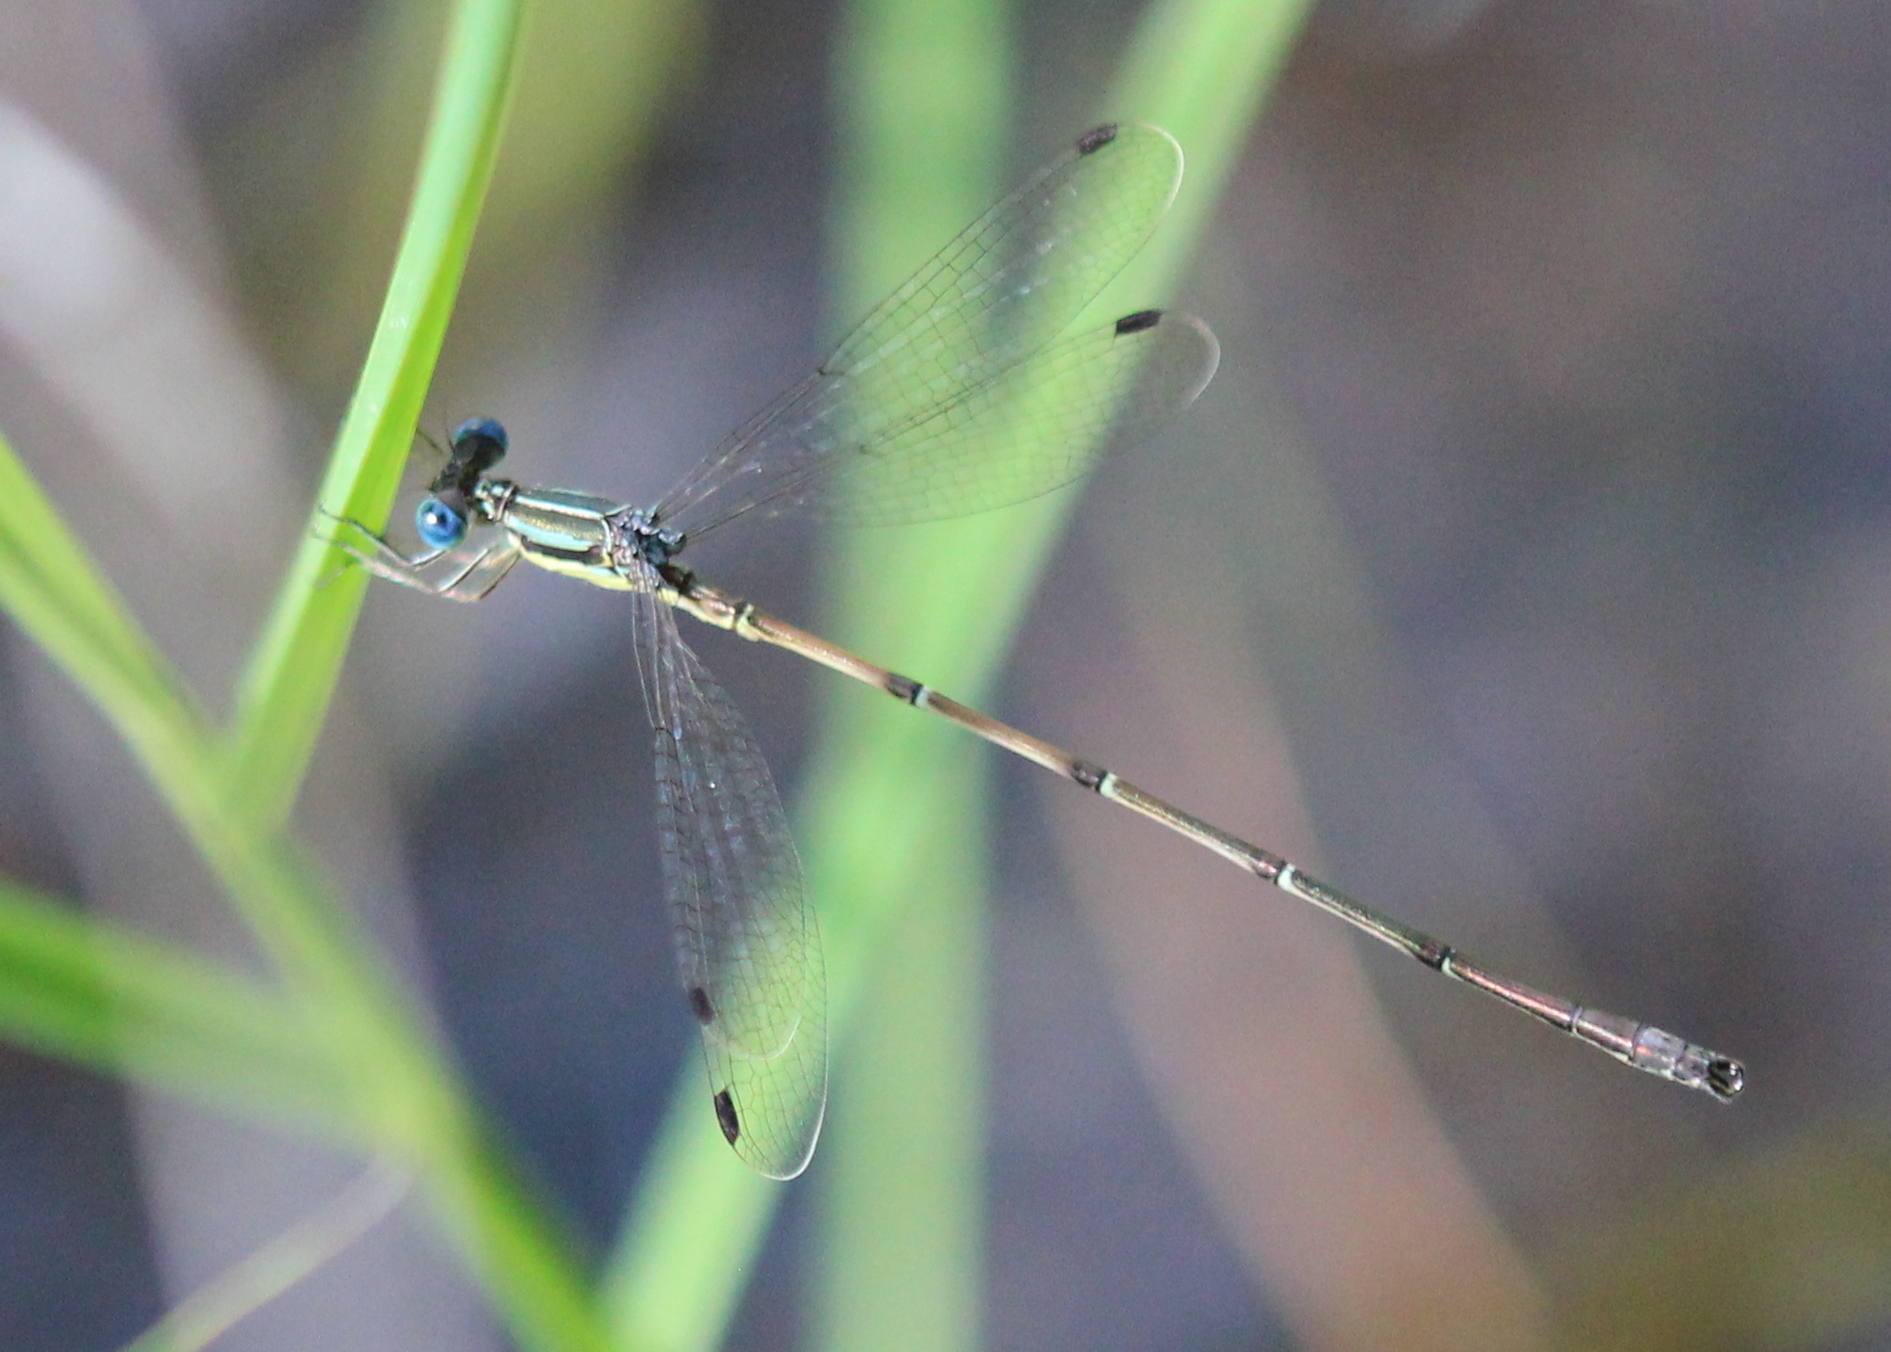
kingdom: Animalia
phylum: Arthropoda
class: Insecta
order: Odonata
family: Lestidae
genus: Lestes
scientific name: Lestes rectangularis
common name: Slender spreadwing
